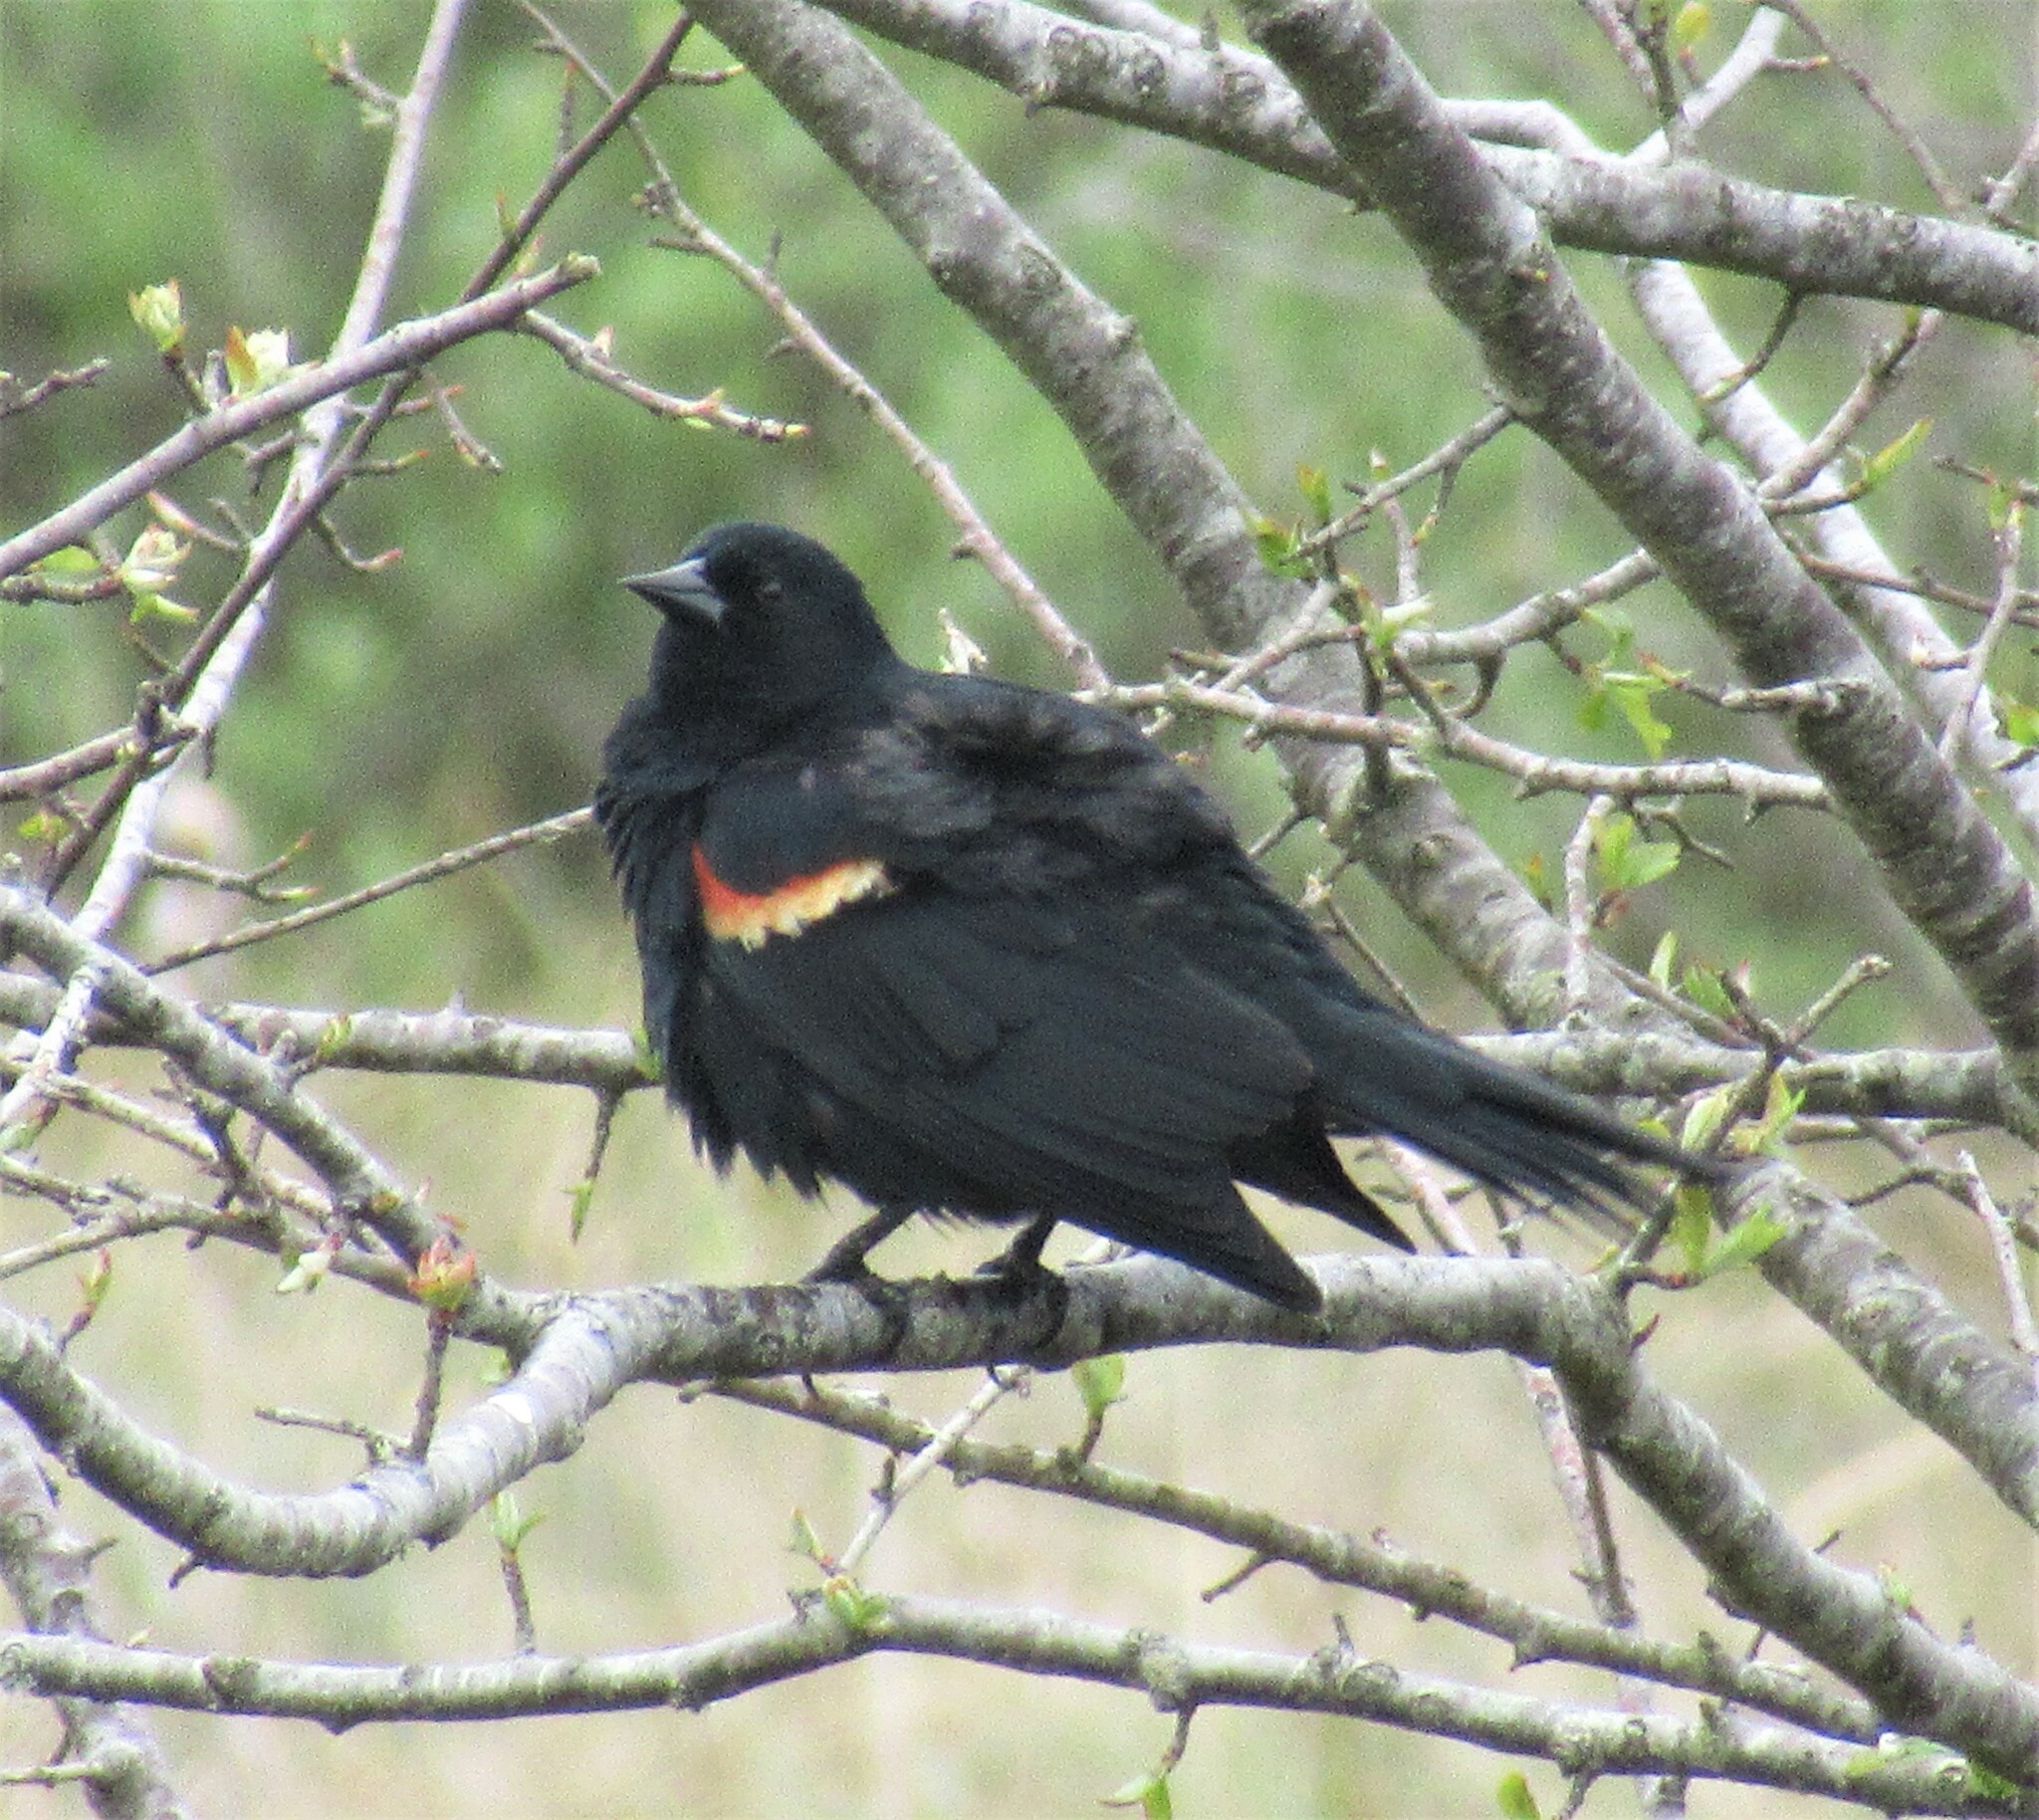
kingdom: Animalia
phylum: Chordata
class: Aves
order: Passeriformes
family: Icteridae
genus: Agelaius
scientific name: Agelaius phoeniceus
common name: Red-winged blackbird
